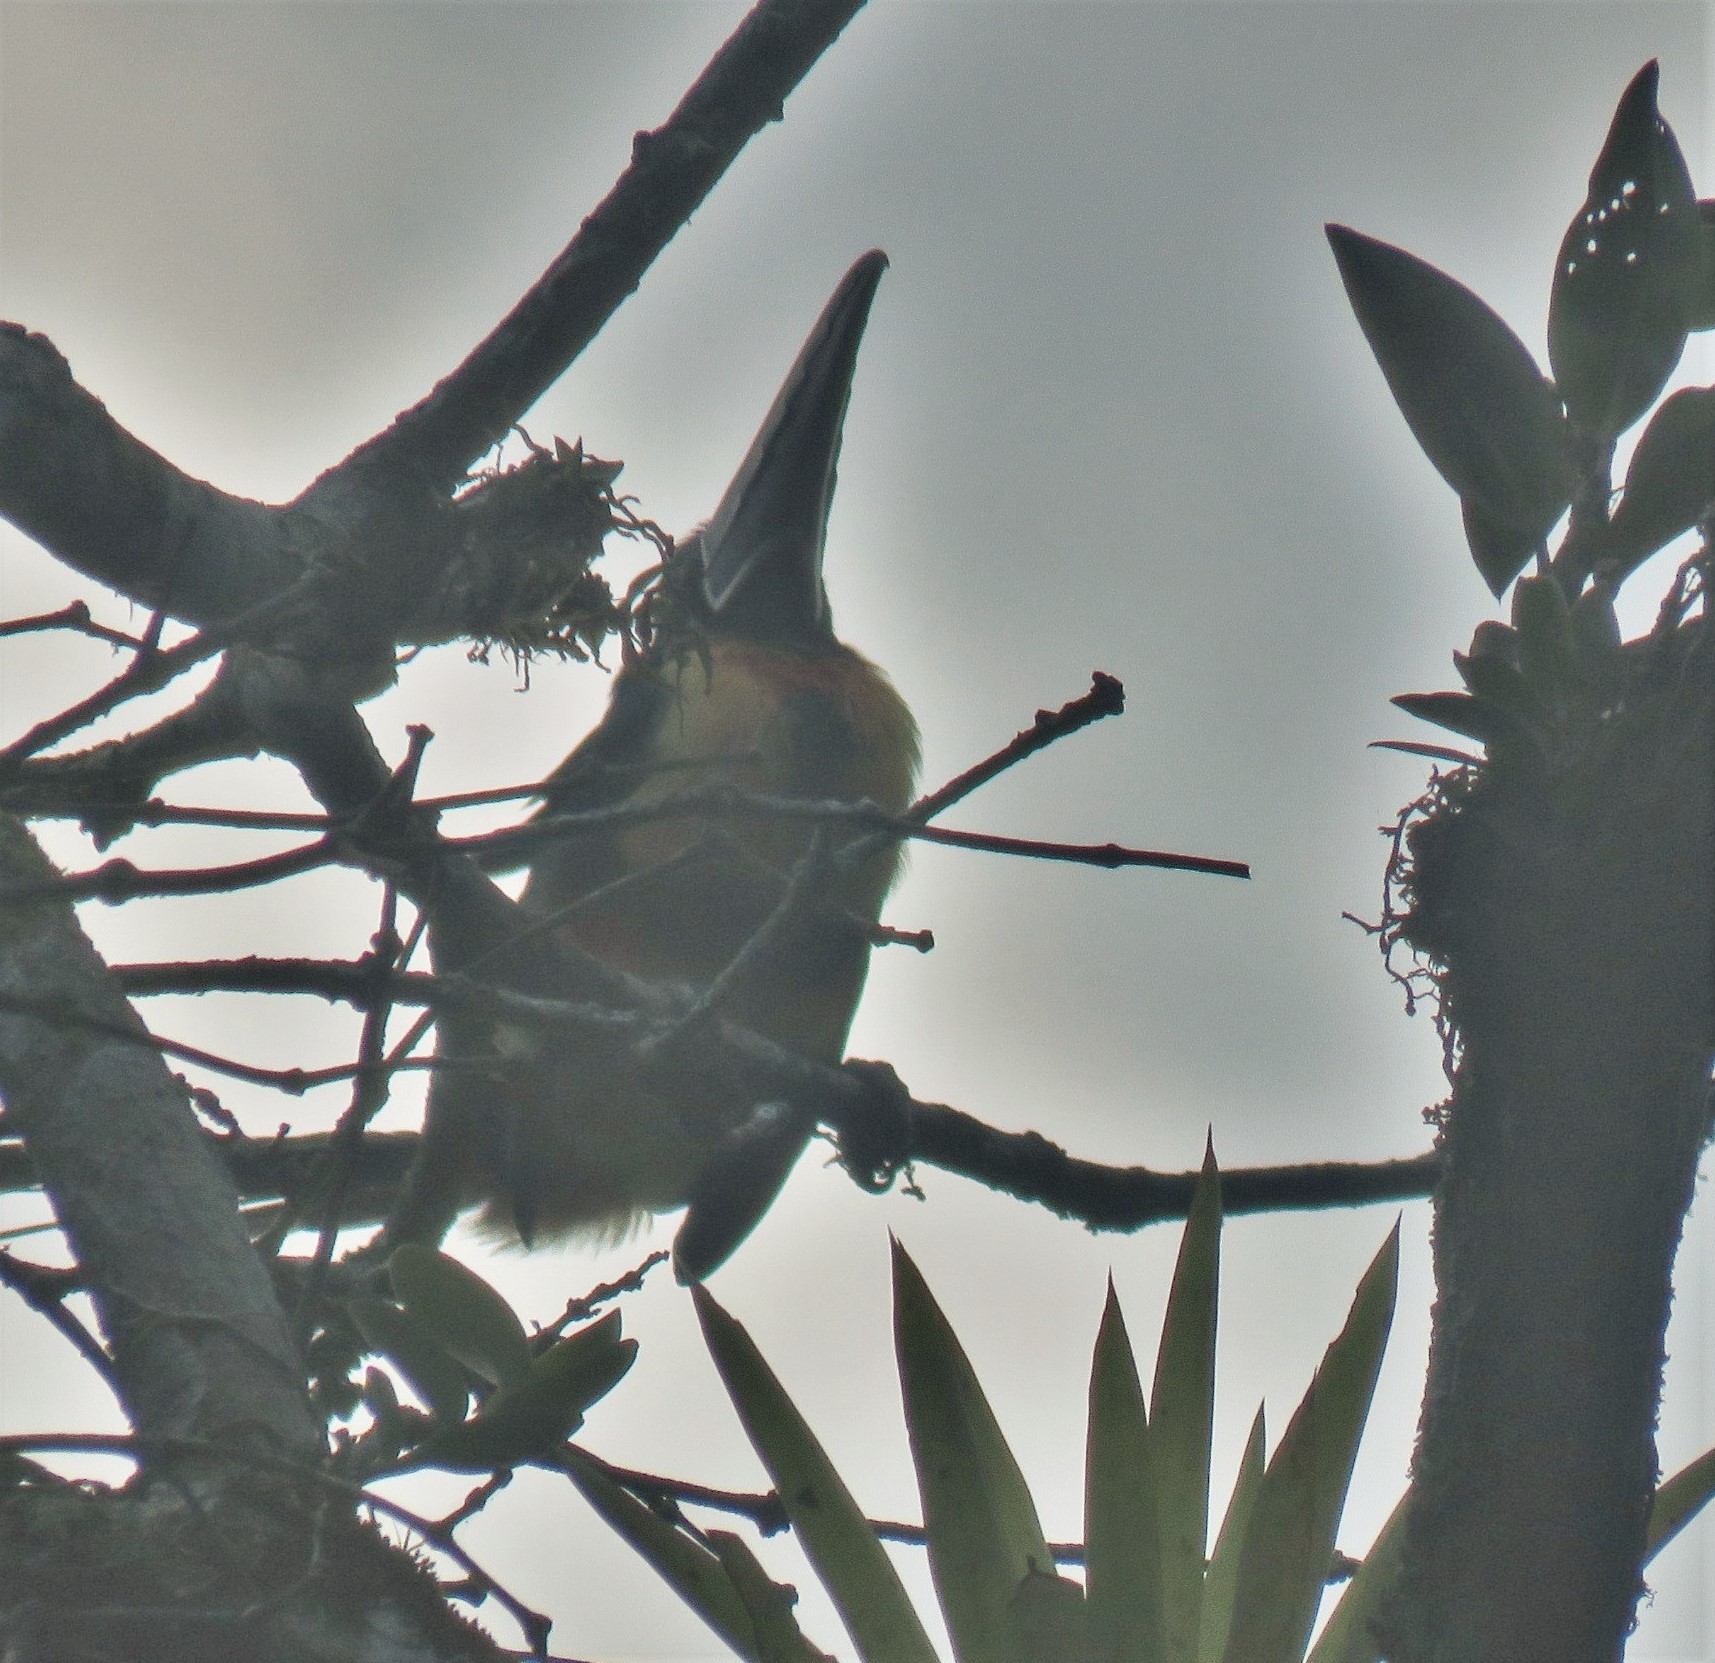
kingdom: Animalia
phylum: Chordata
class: Aves
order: Piciformes
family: Ramphastidae
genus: Pteroglossus
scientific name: Pteroglossus torquatus
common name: Collared aracari
